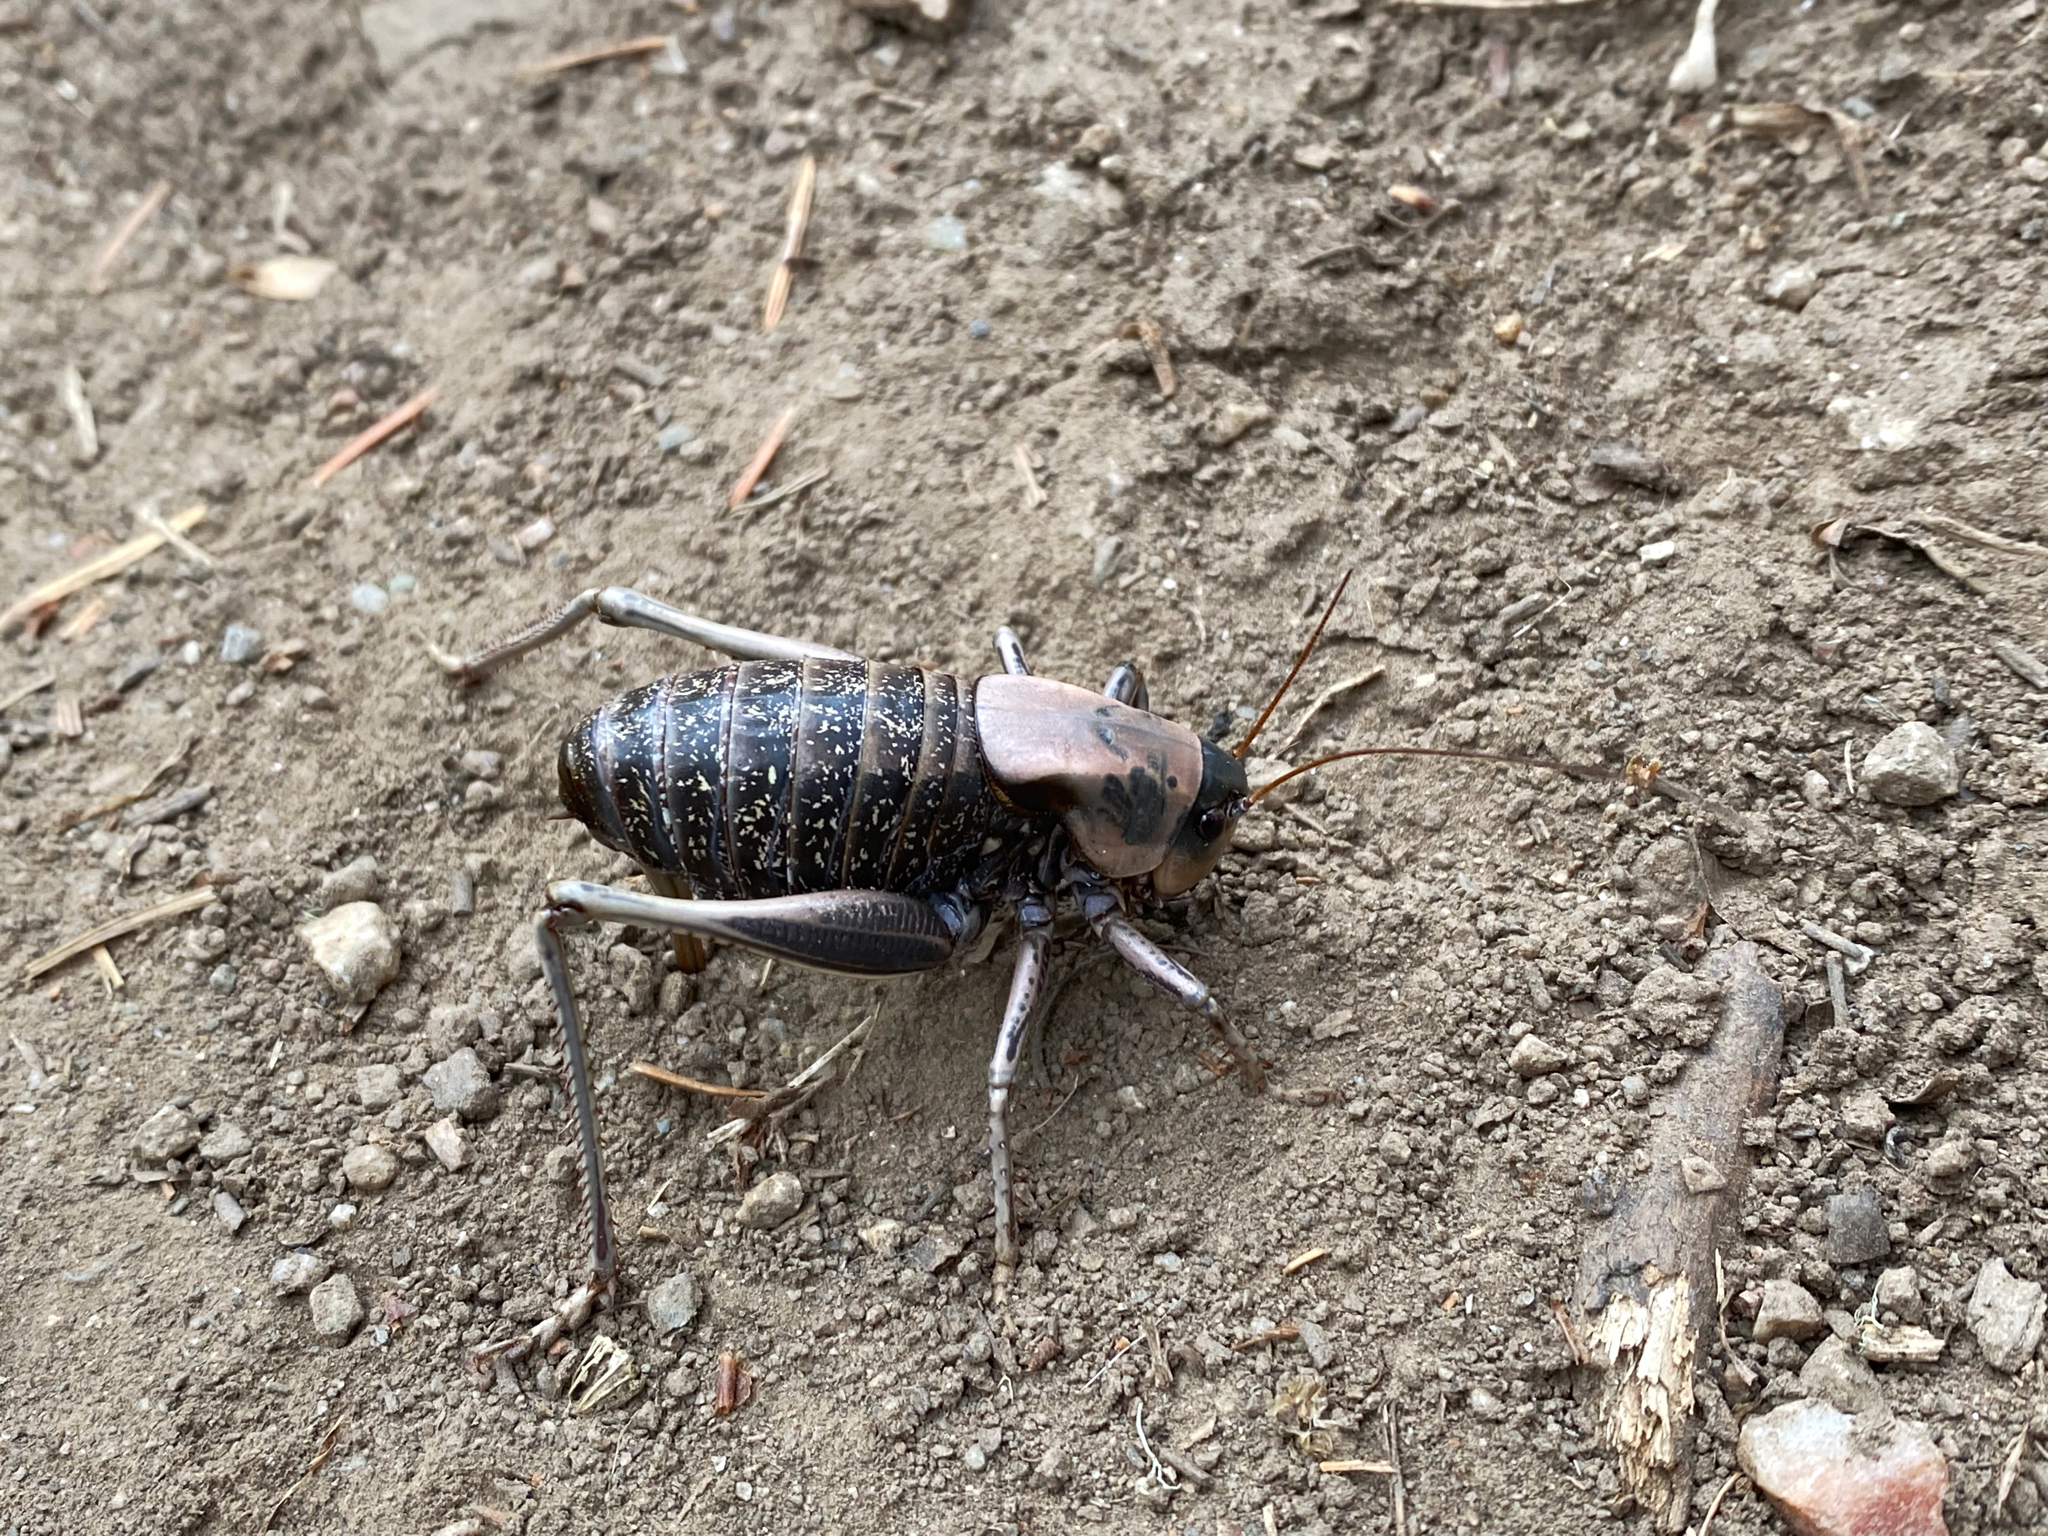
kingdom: Animalia
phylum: Arthropoda
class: Insecta
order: Orthoptera
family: Tettigoniidae
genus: Anabrus
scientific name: Anabrus simplex
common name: Mormon cricket
